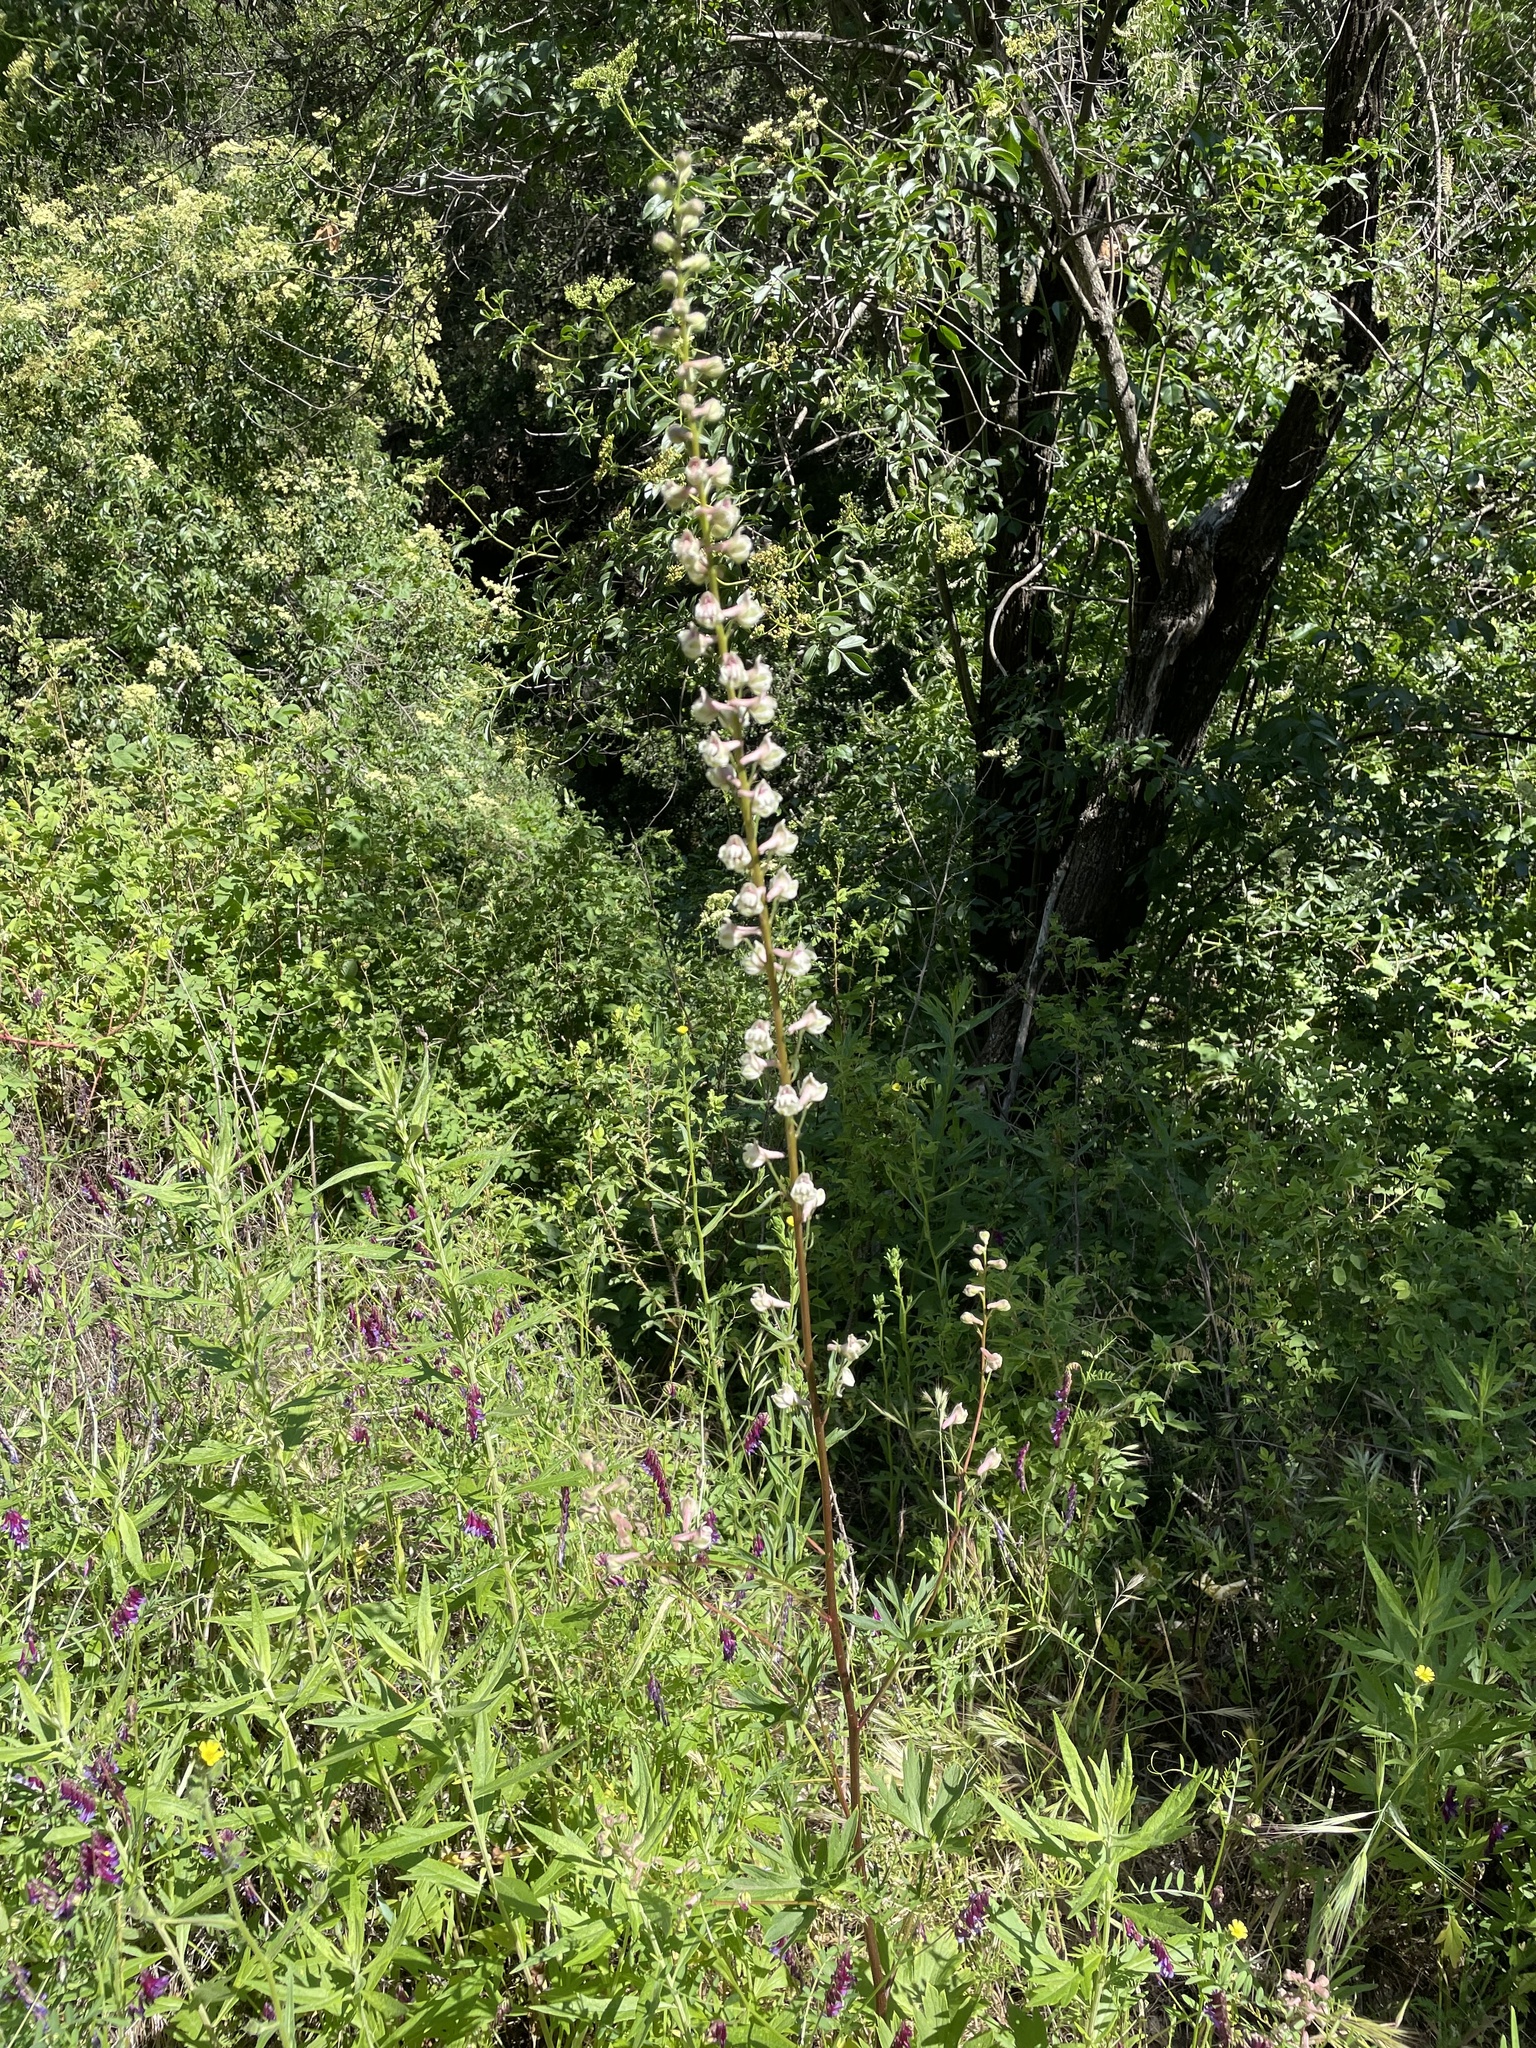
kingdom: Plantae
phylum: Tracheophyta
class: Magnoliopsida
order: Ranunculales
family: Ranunculaceae
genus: Delphinium
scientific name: Delphinium californicum
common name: California larkspur
